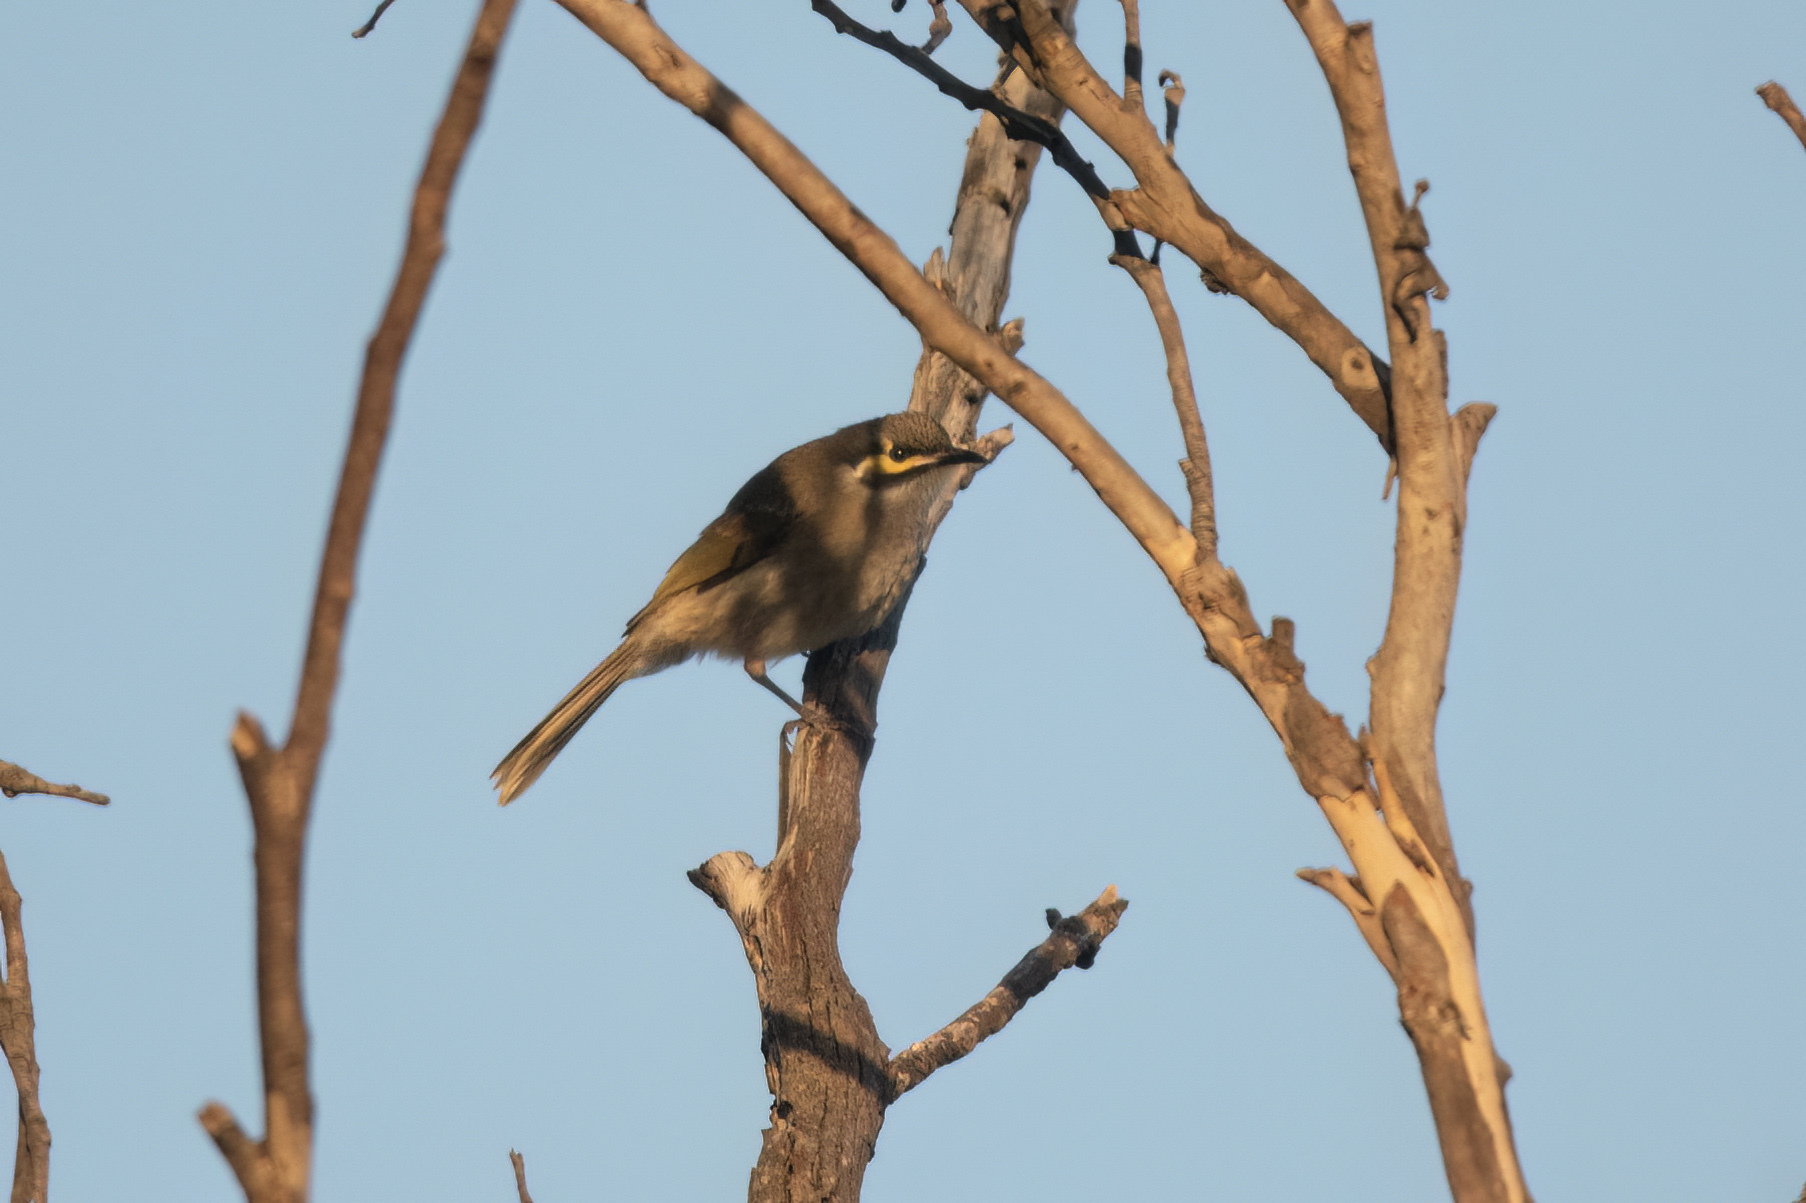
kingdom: Animalia
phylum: Chordata
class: Aves
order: Passeriformes
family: Meliphagidae
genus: Caligavis
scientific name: Caligavis chrysops
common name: Yellow-faced honeyeater
